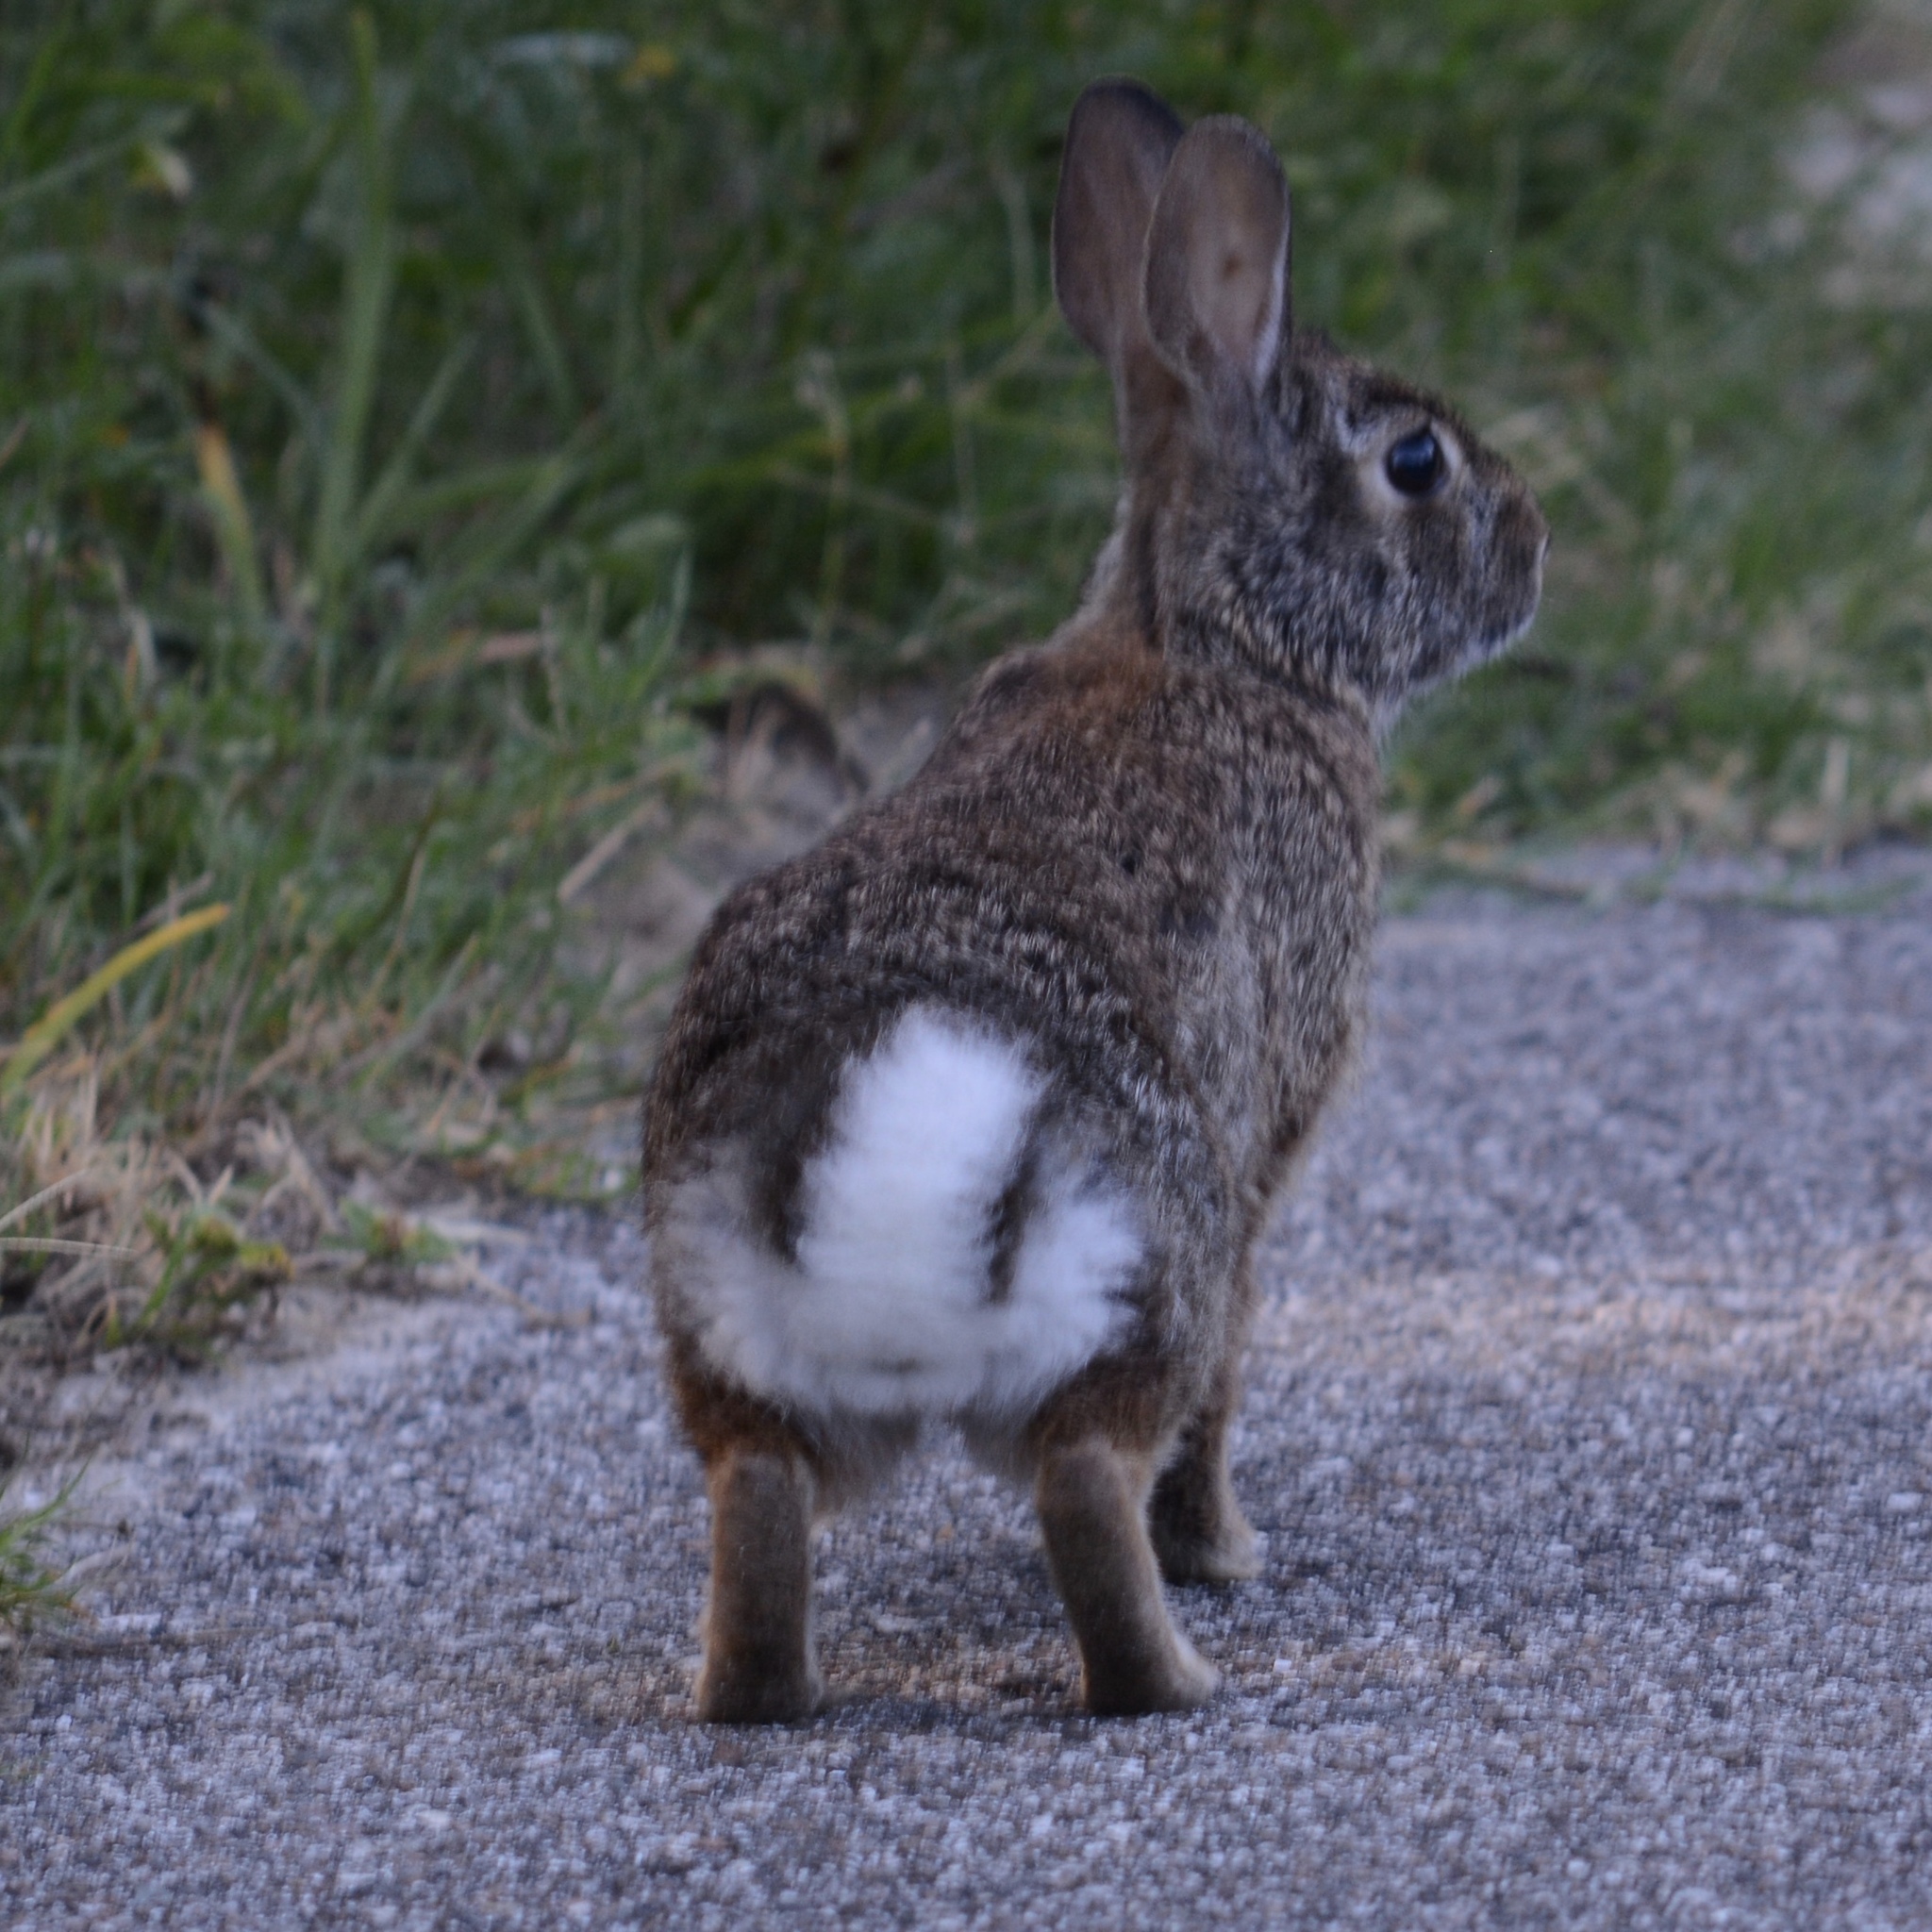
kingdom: Animalia
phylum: Chordata
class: Mammalia
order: Lagomorpha
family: Leporidae
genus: Sylvilagus
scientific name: Sylvilagus floridanus
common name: Eastern cottontail
